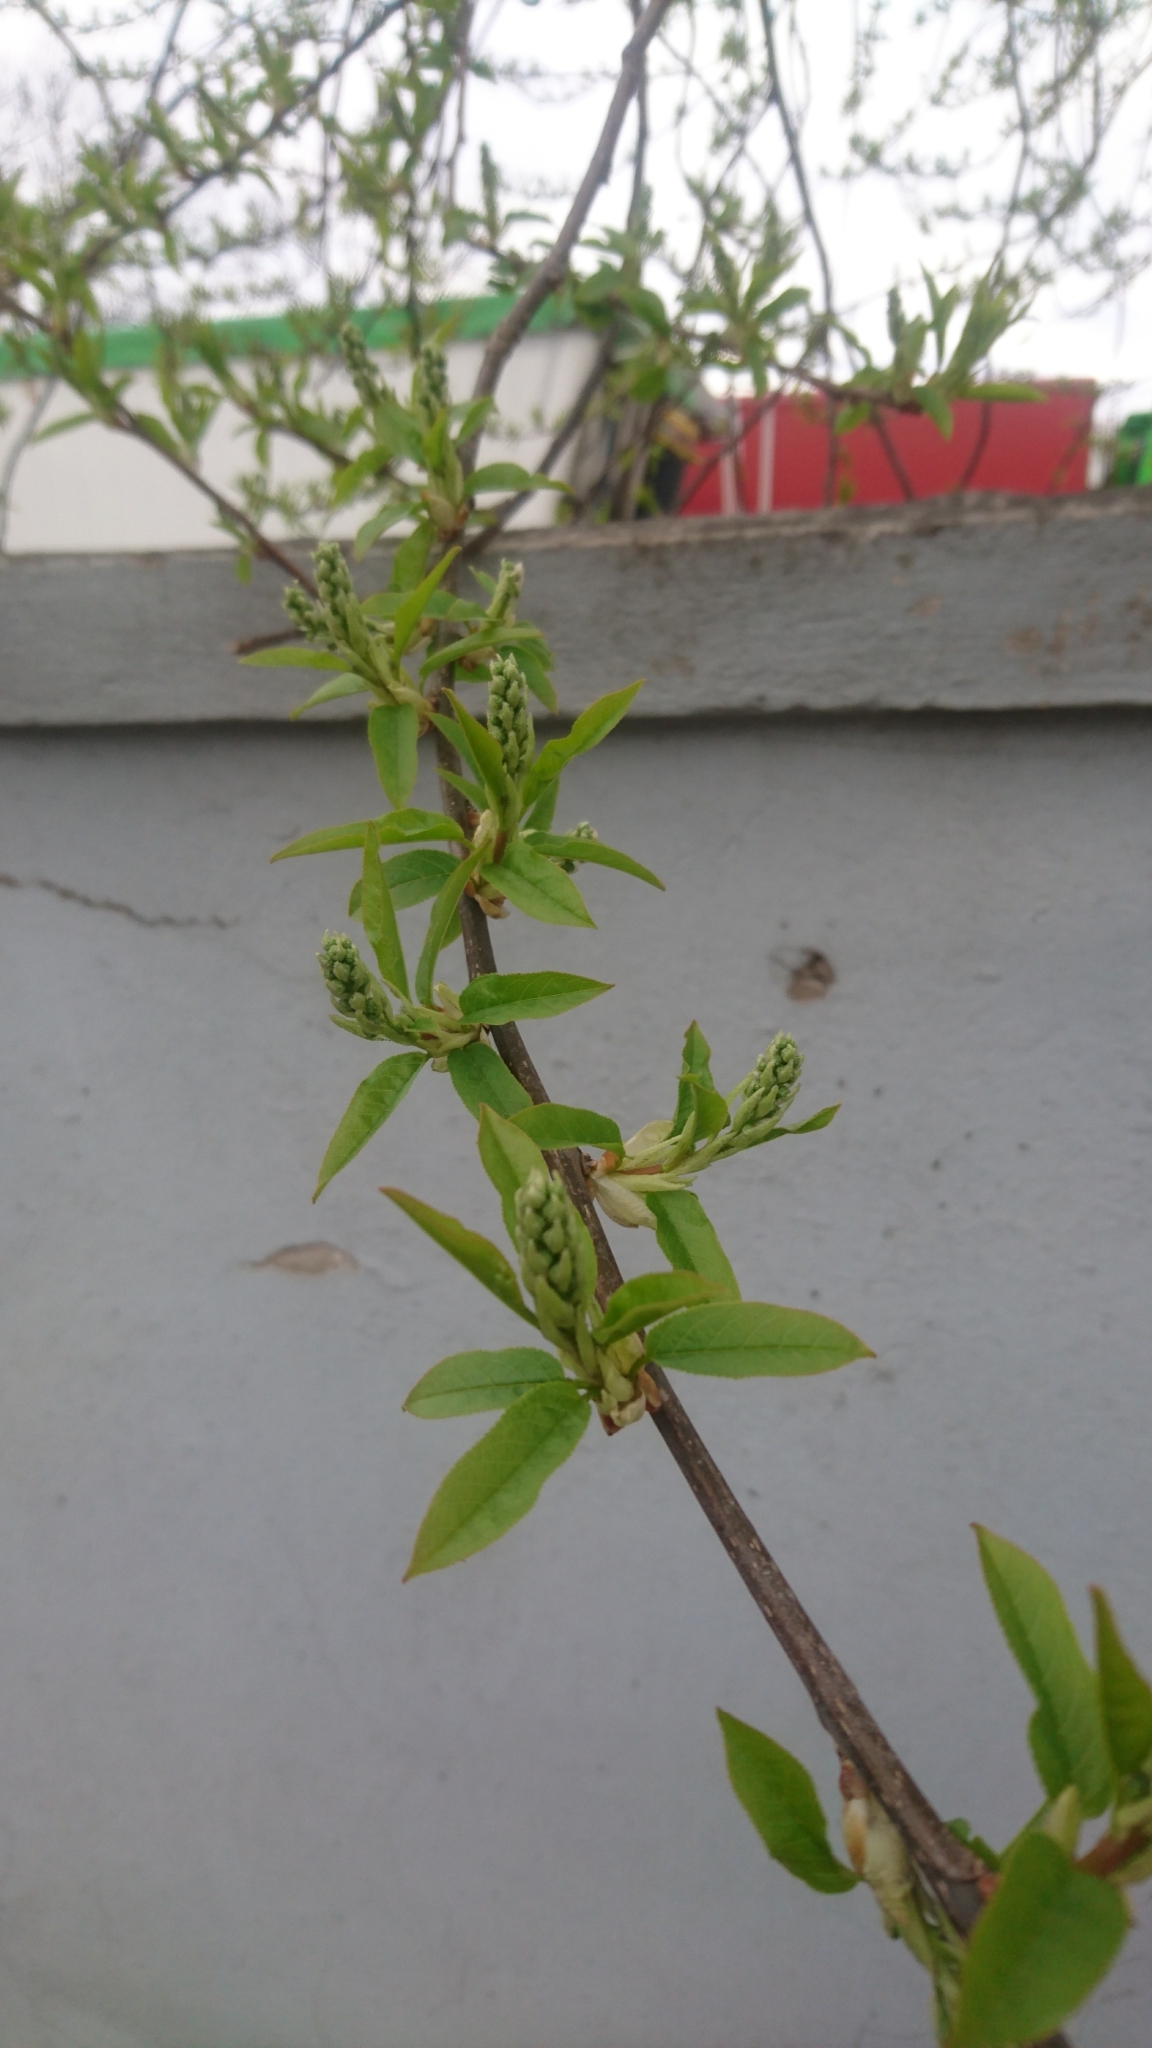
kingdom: Plantae
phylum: Tracheophyta
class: Magnoliopsida
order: Rosales
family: Rosaceae
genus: Prunus
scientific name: Prunus padus
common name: Bird cherry
